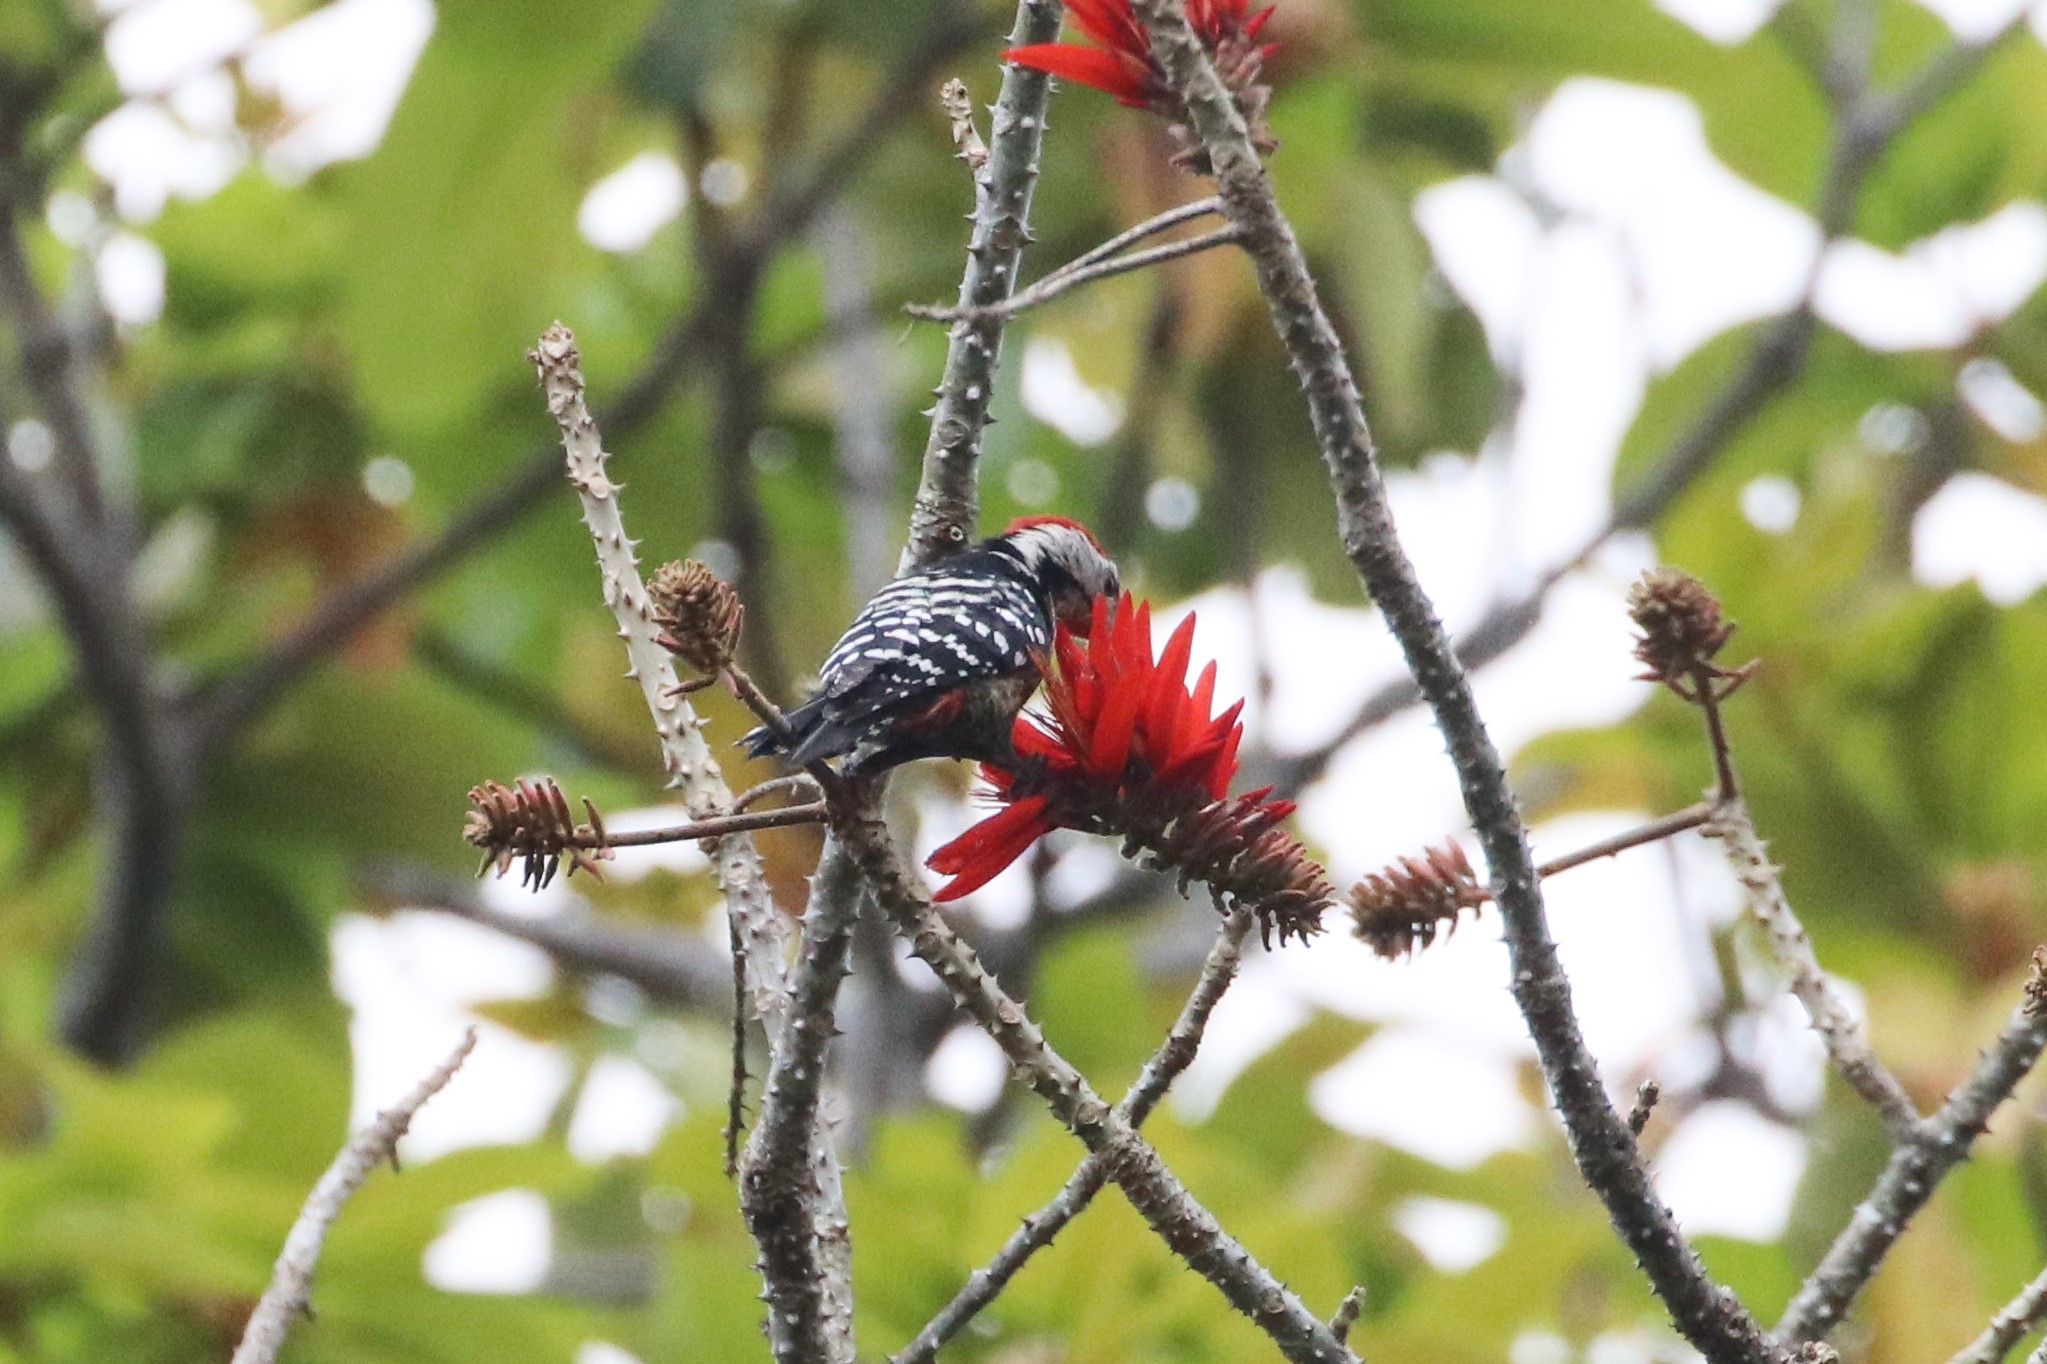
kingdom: Animalia
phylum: Chordata
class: Aves
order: Piciformes
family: Picidae
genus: Dendrocopos
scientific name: Dendrocopos atratus
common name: Stripe-breasted woodpecker
